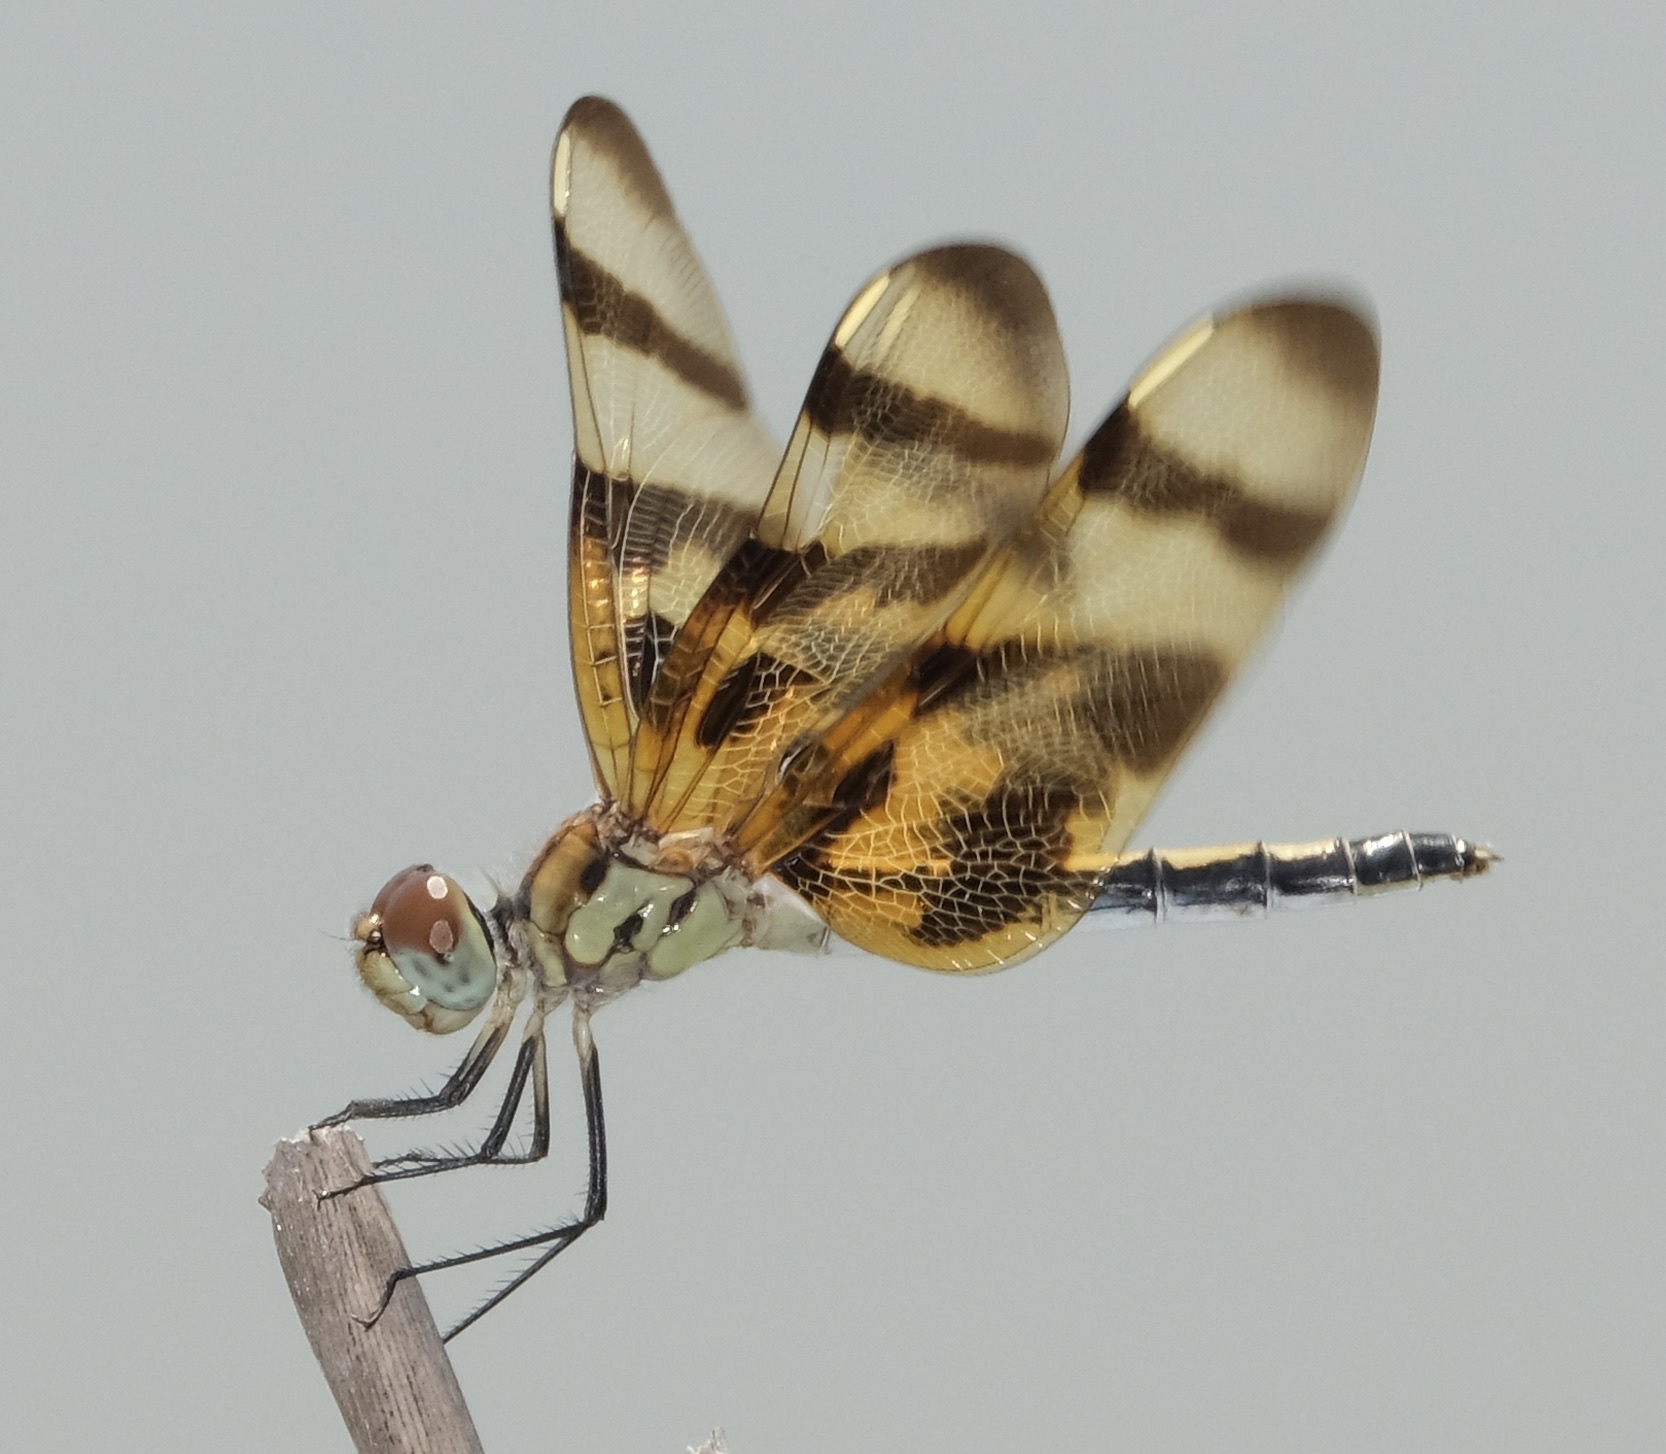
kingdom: Animalia
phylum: Arthropoda
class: Insecta
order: Odonata
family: Libellulidae
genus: Celithemis
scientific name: Celithemis eponina
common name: Halloween pennant
